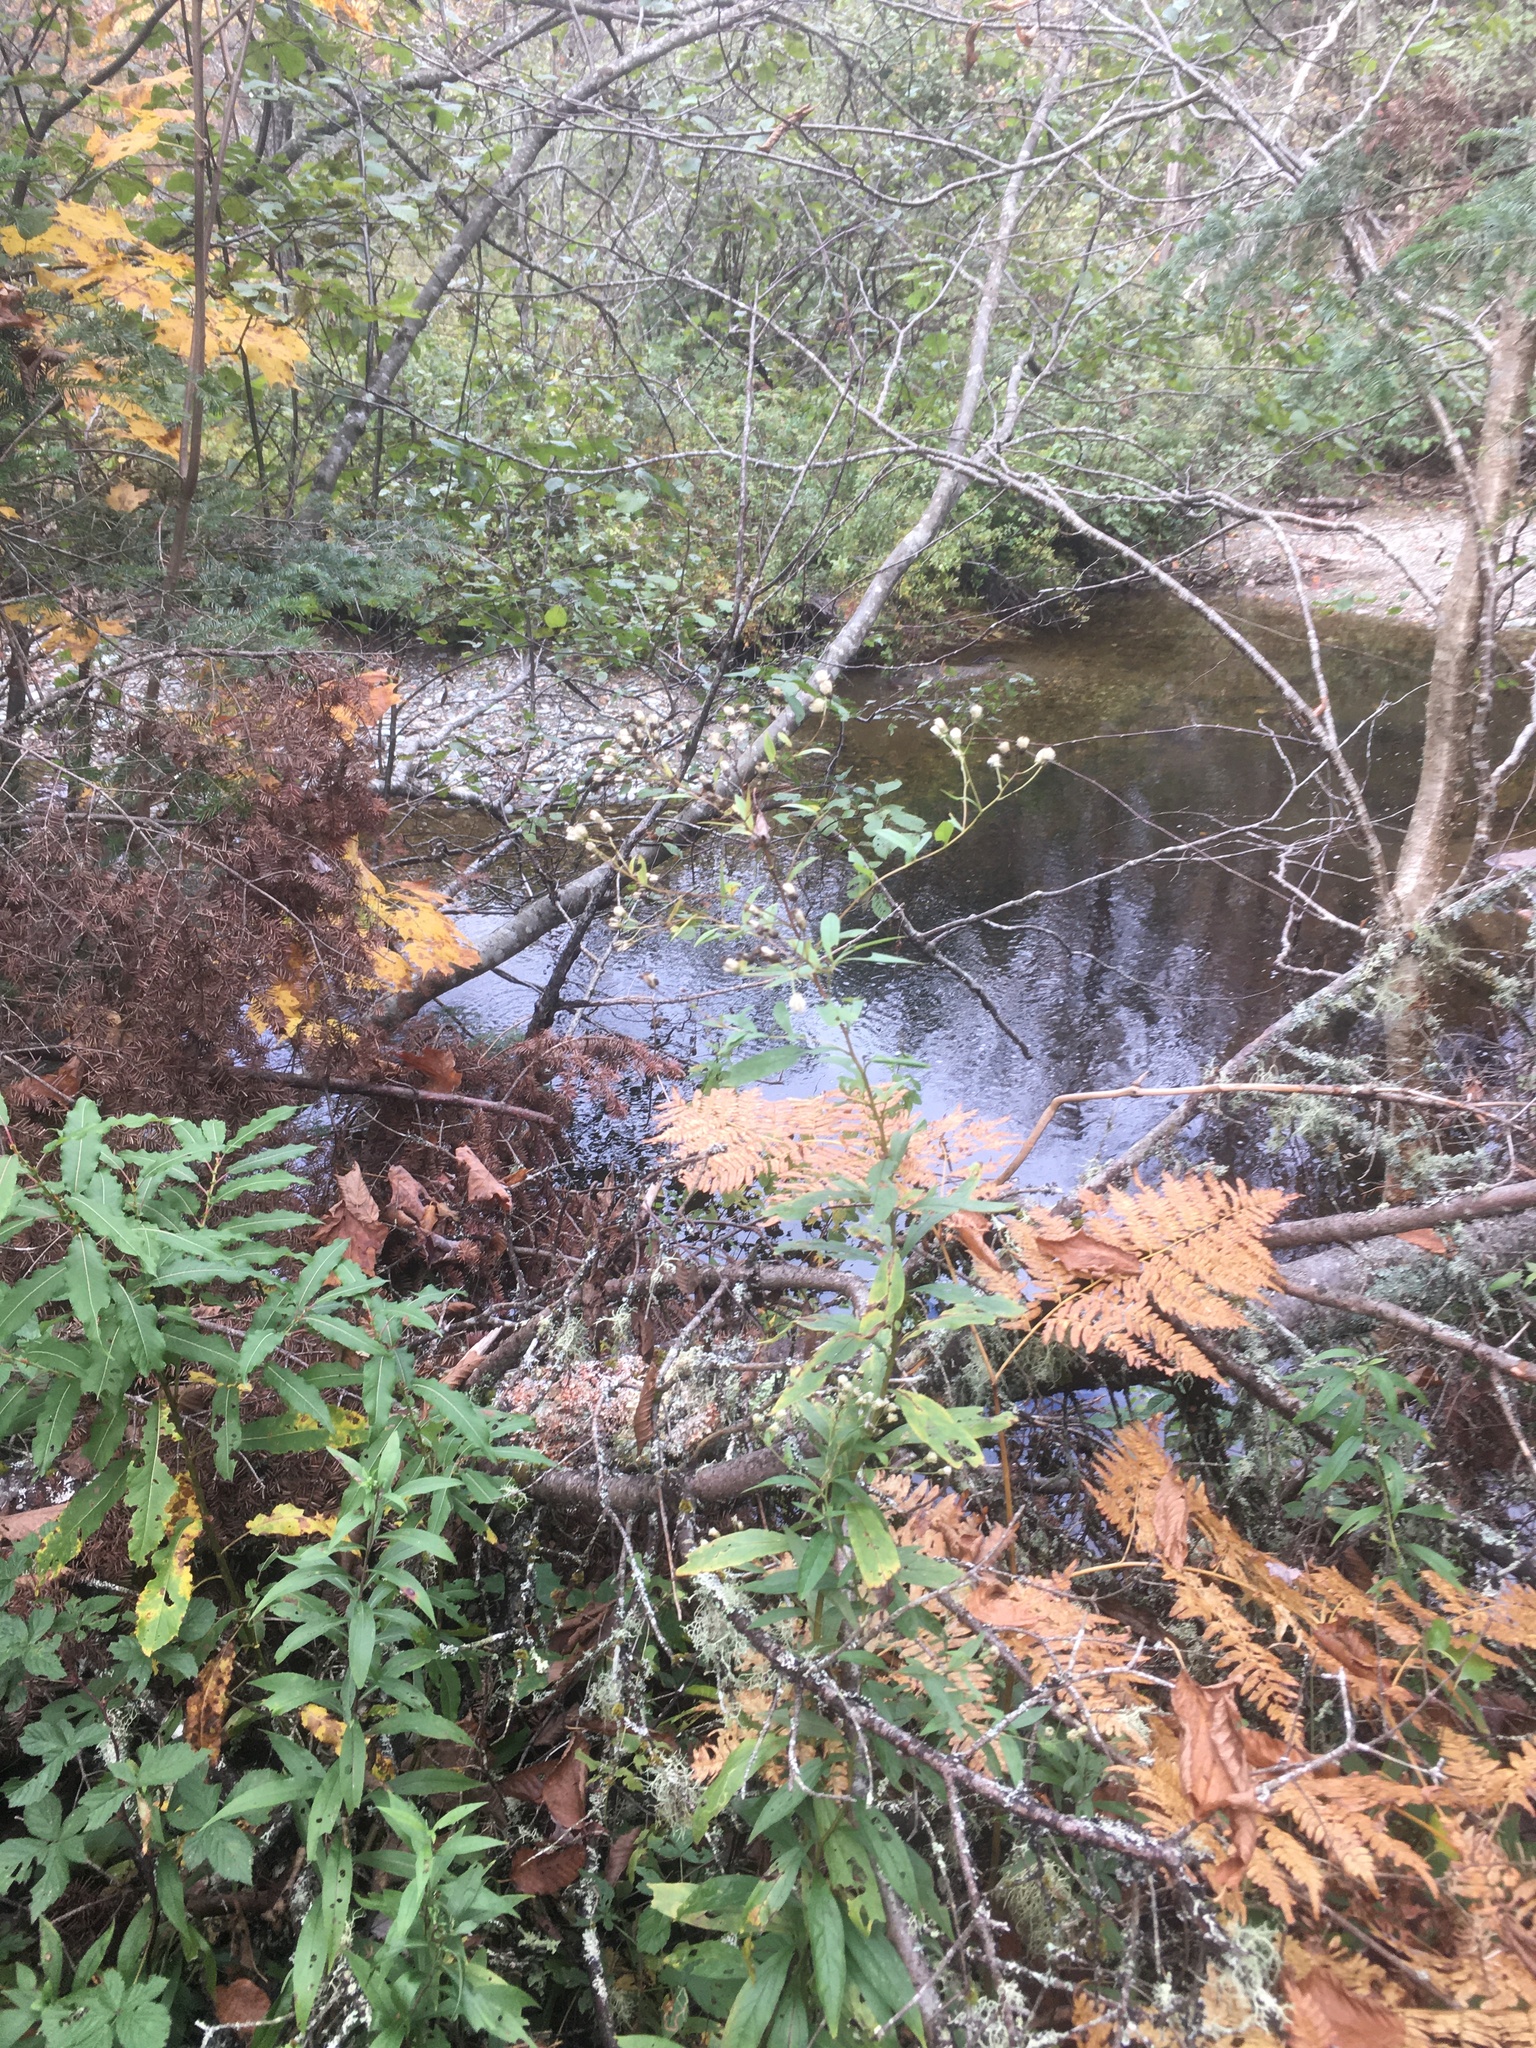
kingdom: Plantae
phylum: Tracheophyta
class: Polypodiopsida
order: Polypodiales
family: Dennstaedtiaceae
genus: Pteridium
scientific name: Pteridium aquilinum
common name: Bracken
